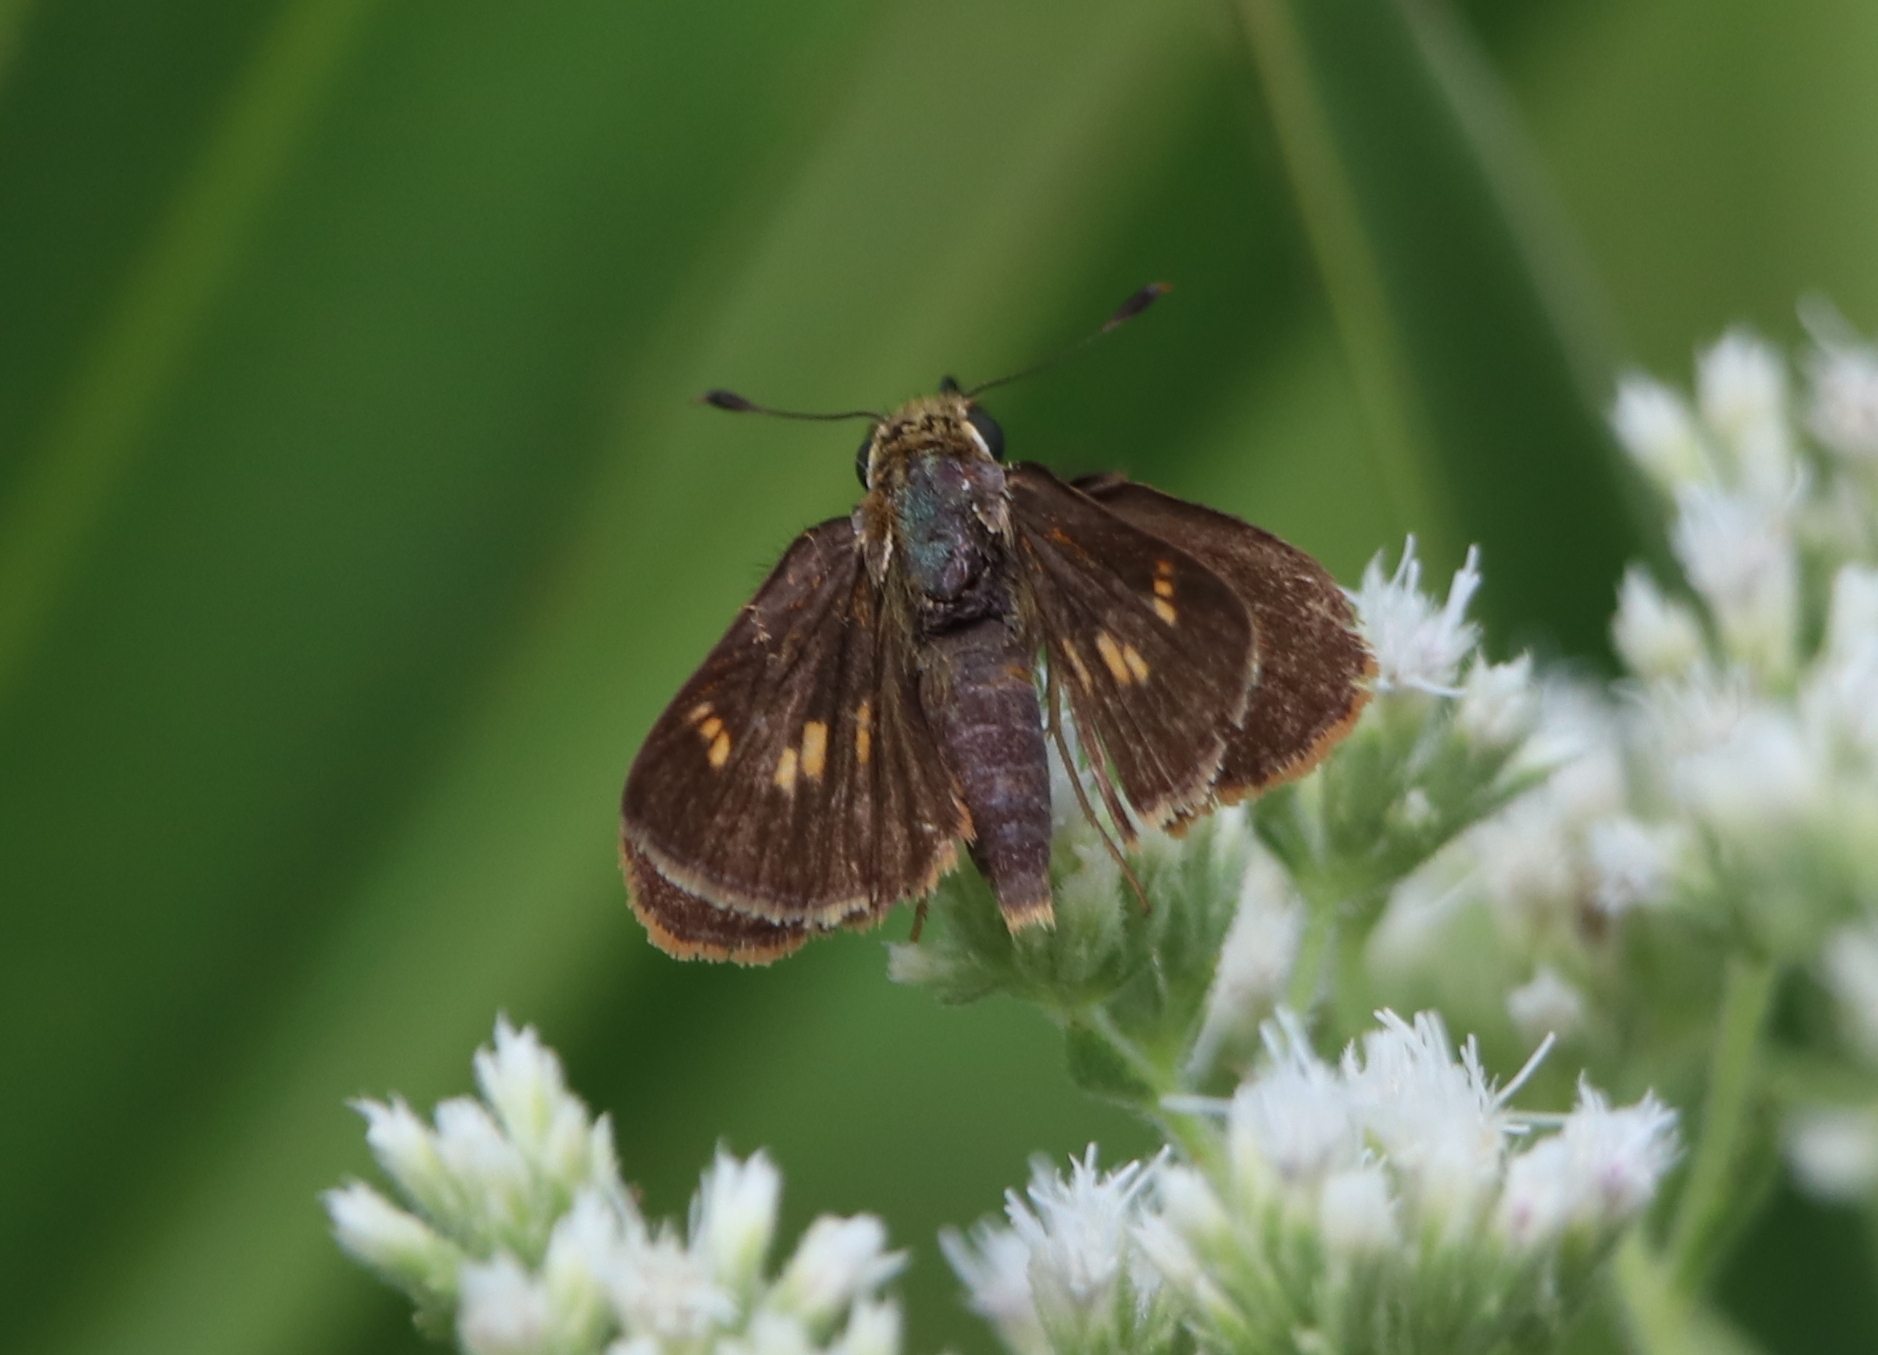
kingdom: Animalia
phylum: Arthropoda
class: Insecta
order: Lepidoptera
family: Hesperiidae
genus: Vernia
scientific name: Vernia verna
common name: Little glassywing
